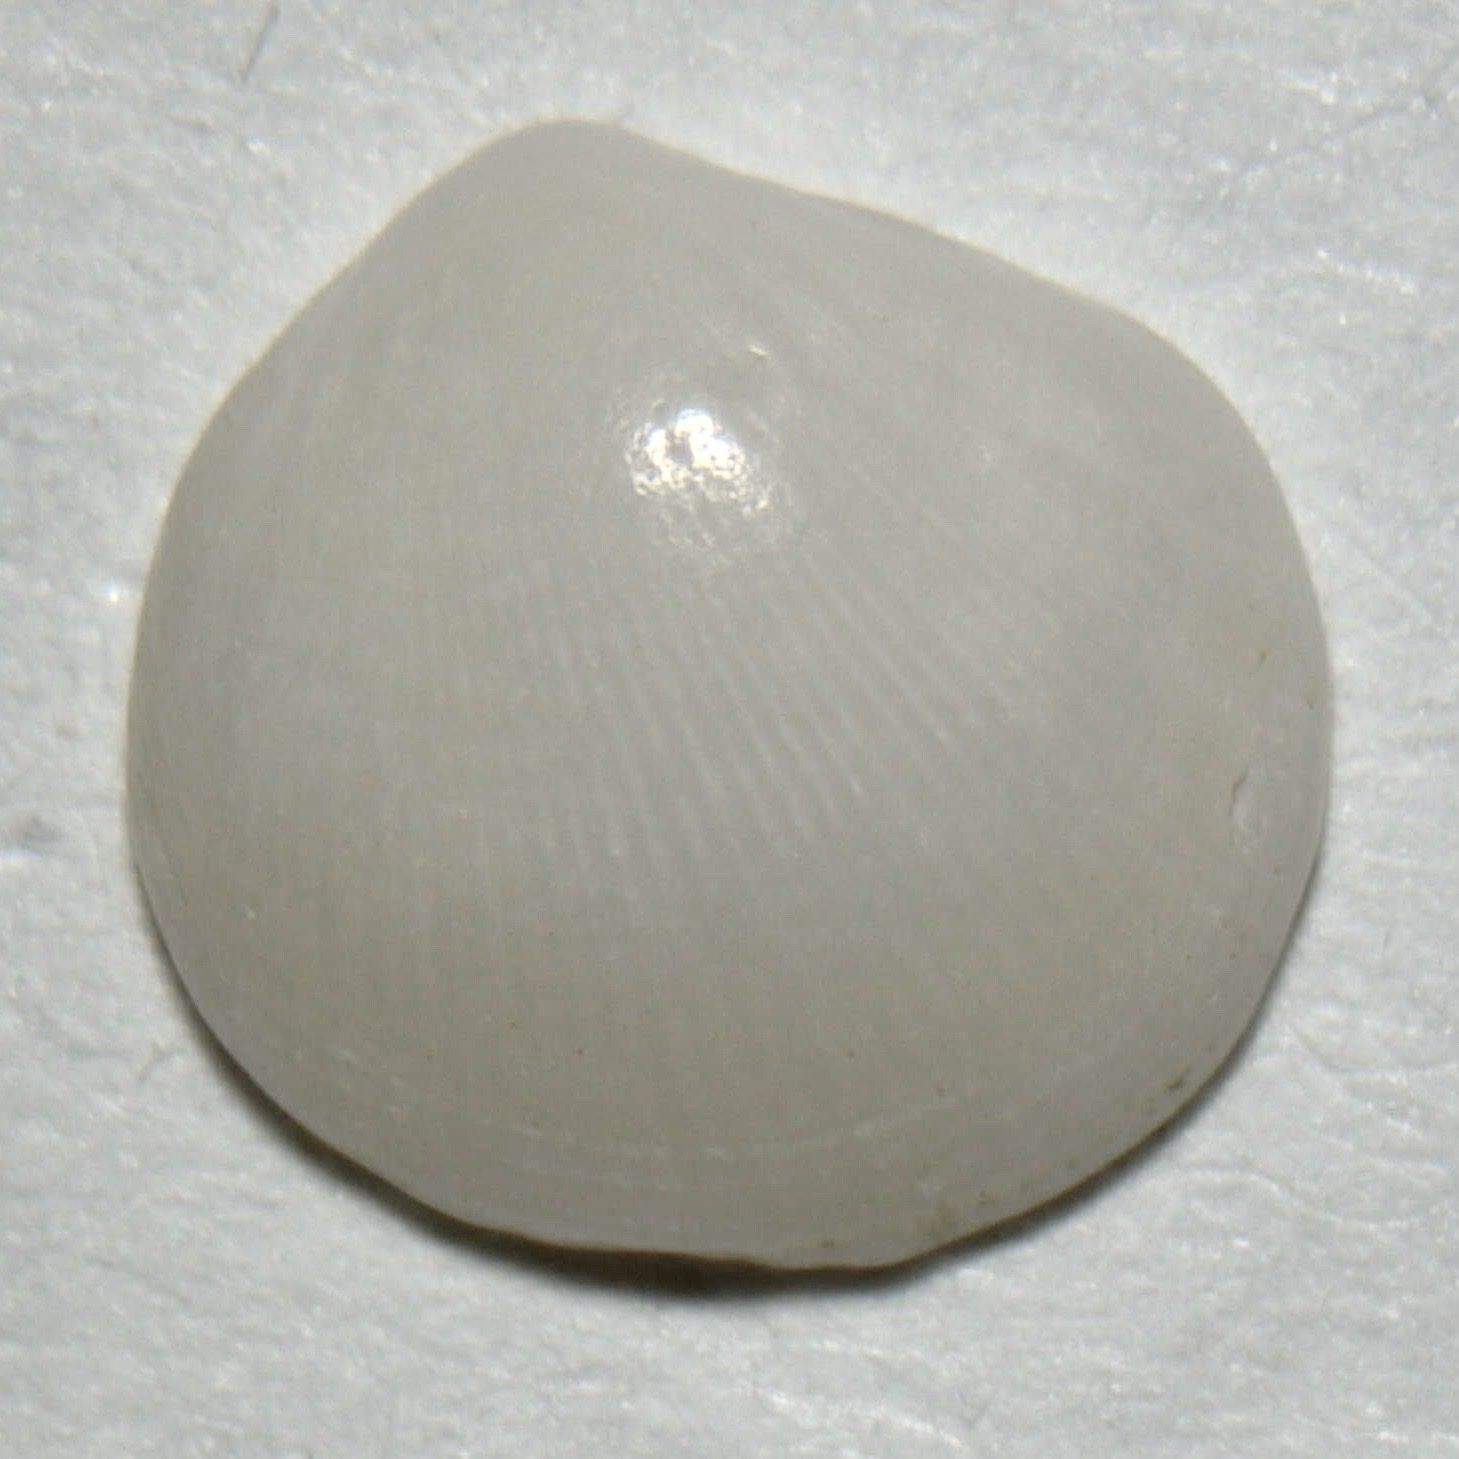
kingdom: Animalia
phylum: Mollusca
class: Bivalvia
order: Lucinida
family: Lucinidae
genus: Clathrolucina
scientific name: Clathrolucina costata
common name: Costate lucine
